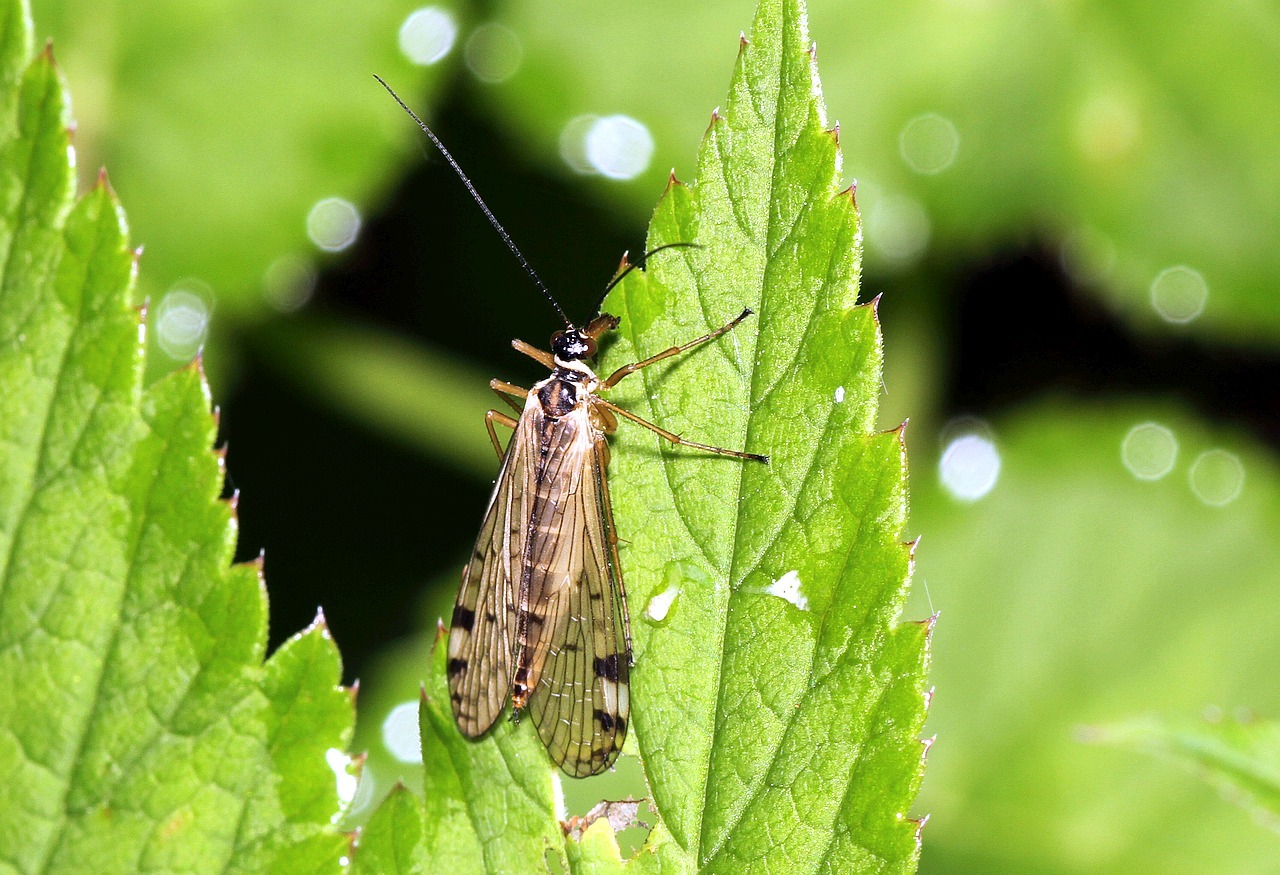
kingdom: Animalia
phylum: Arthropoda
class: Insecta
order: Mecoptera
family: Panorpidae
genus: Panorpa
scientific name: Panorpa alpina
